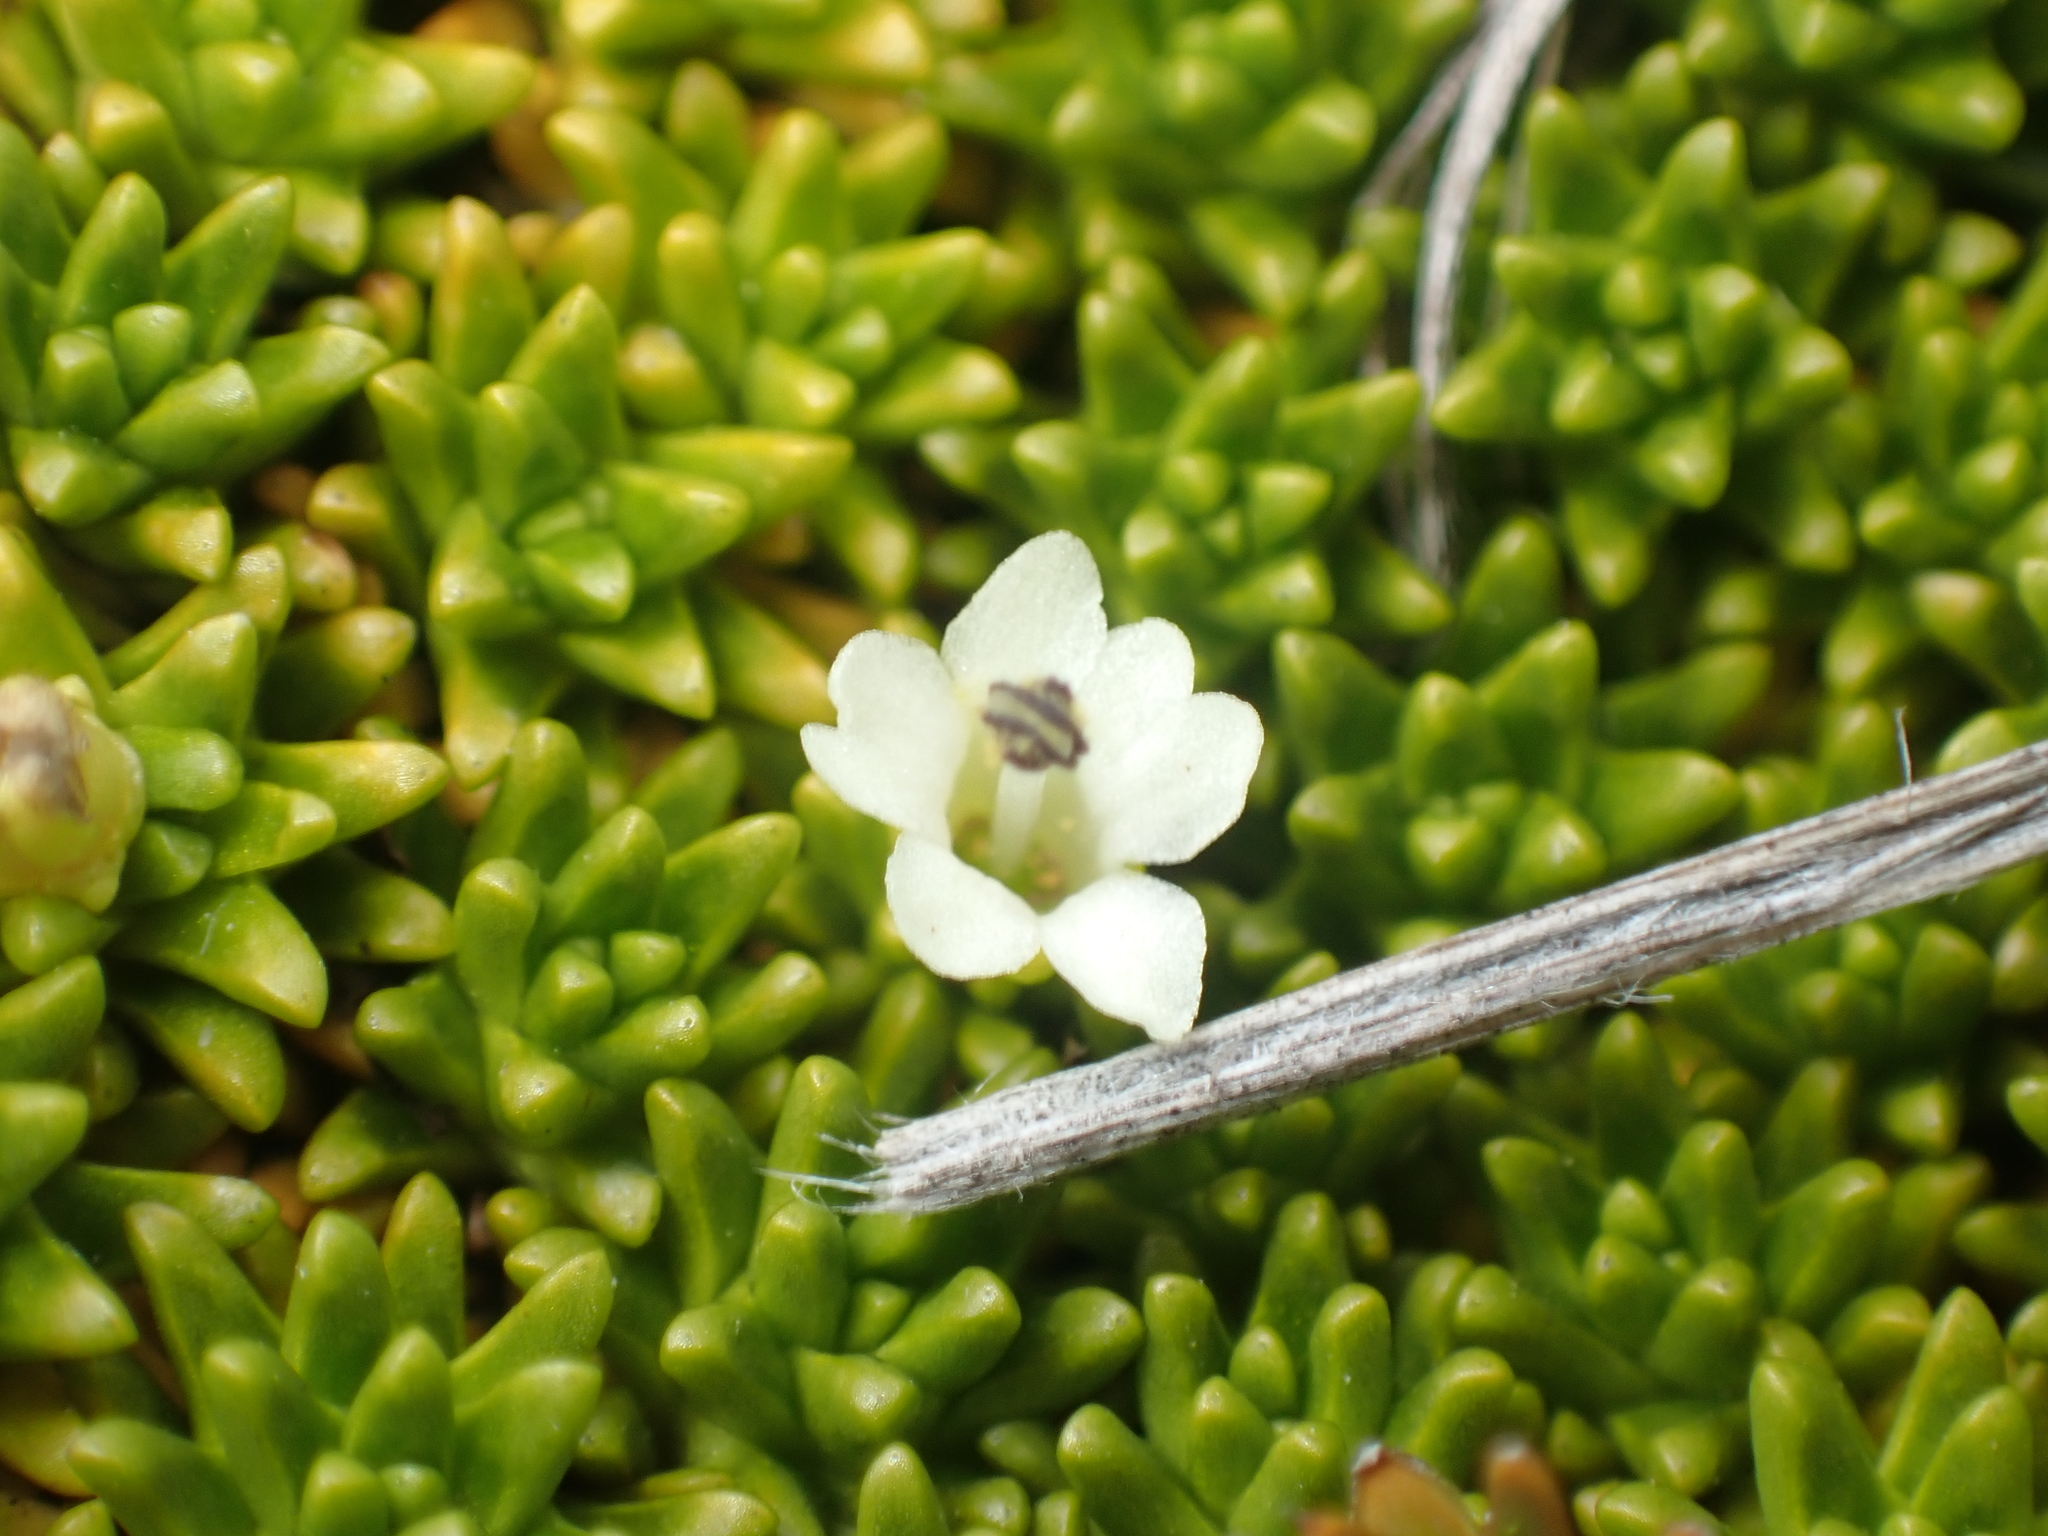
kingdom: Plantae
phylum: Tracheophyta
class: Magnoliopsida
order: Asterales
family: Stylidiaceae
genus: Phyllachne
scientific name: Phyllachne colensoi
